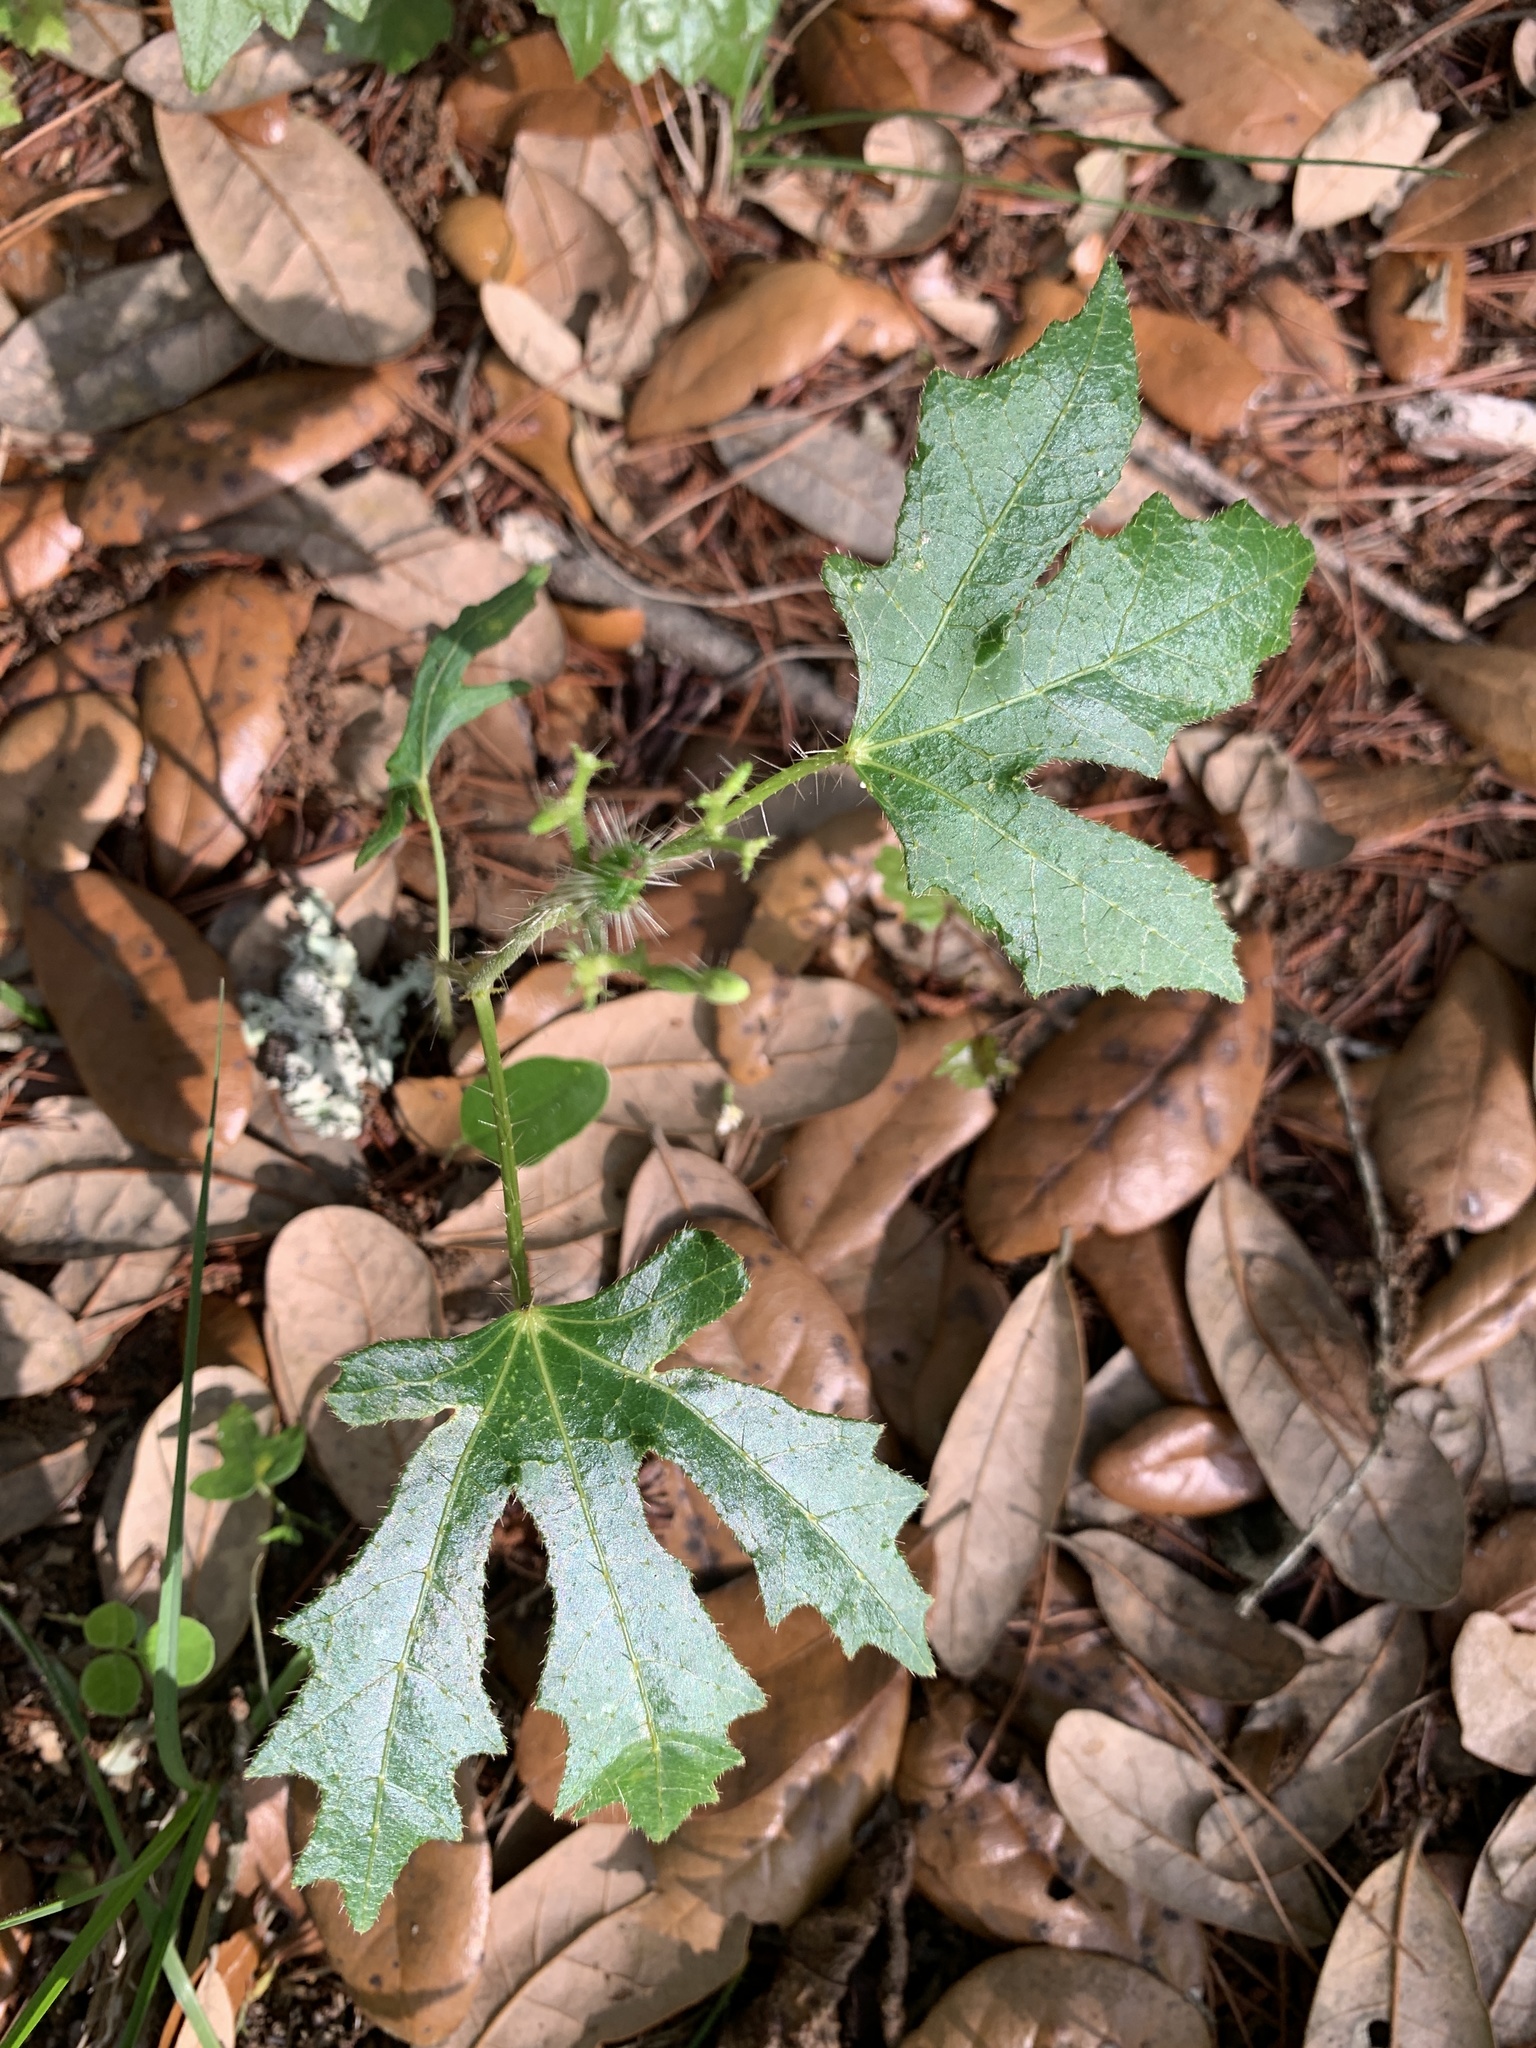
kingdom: Plantae
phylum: Tracheophyta
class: Magnoliopsida
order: Malpighiales
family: Euphorbiaceae
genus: Cnidoscolus
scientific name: Cnidoscolus stimulosus
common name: Bull-nettle
